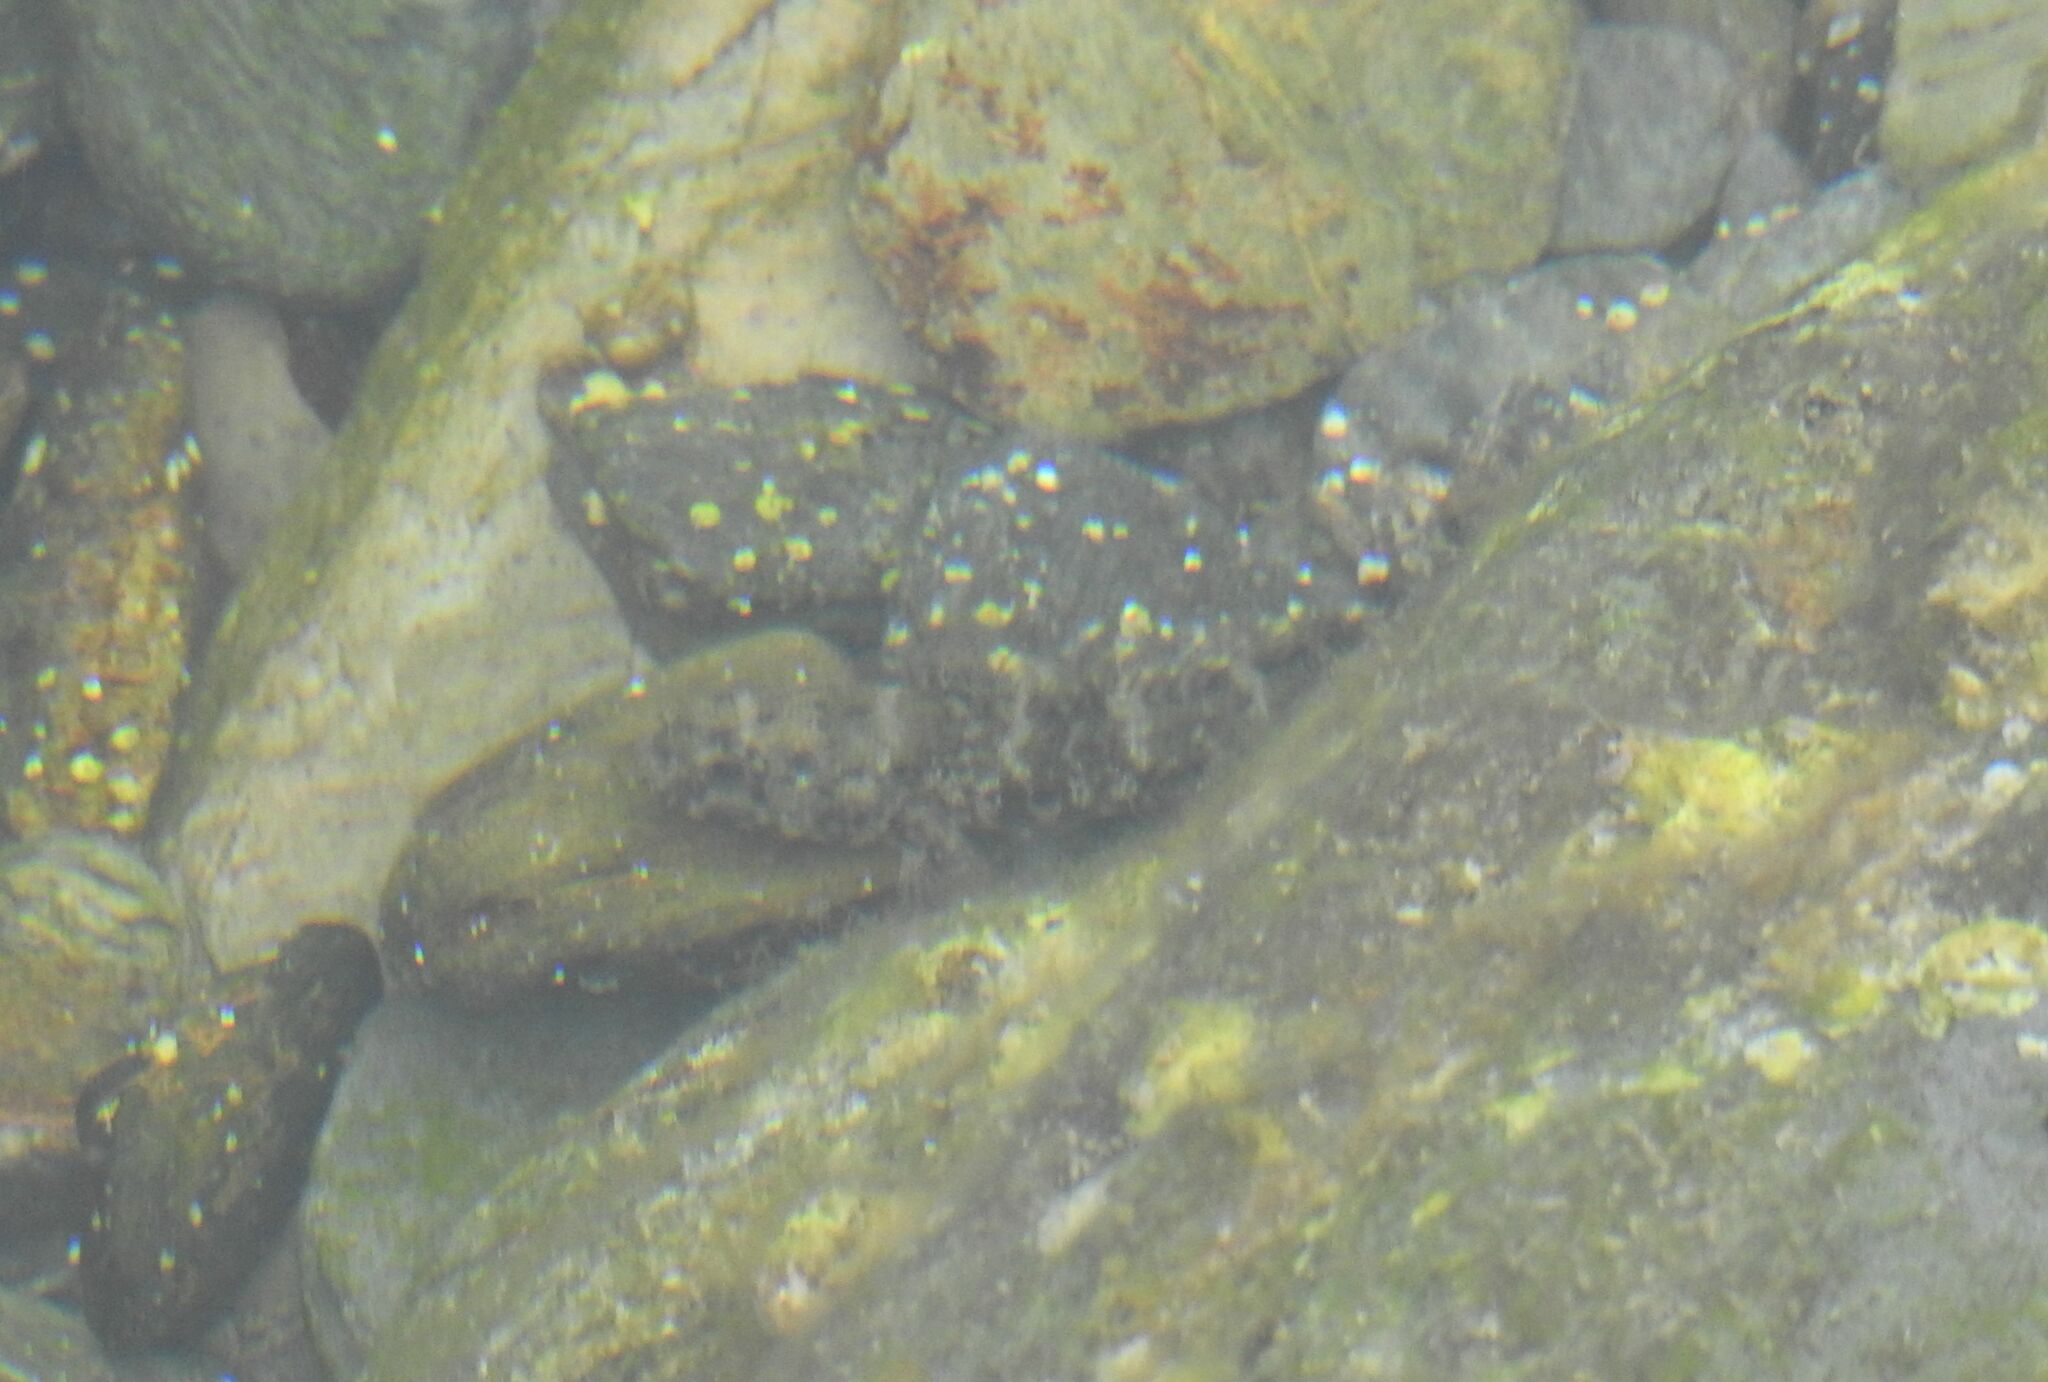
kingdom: Animalia
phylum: Chordata
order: Perciformes
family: Gobiidae
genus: Gobius
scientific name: Gobius paganellus
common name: Rock goby
